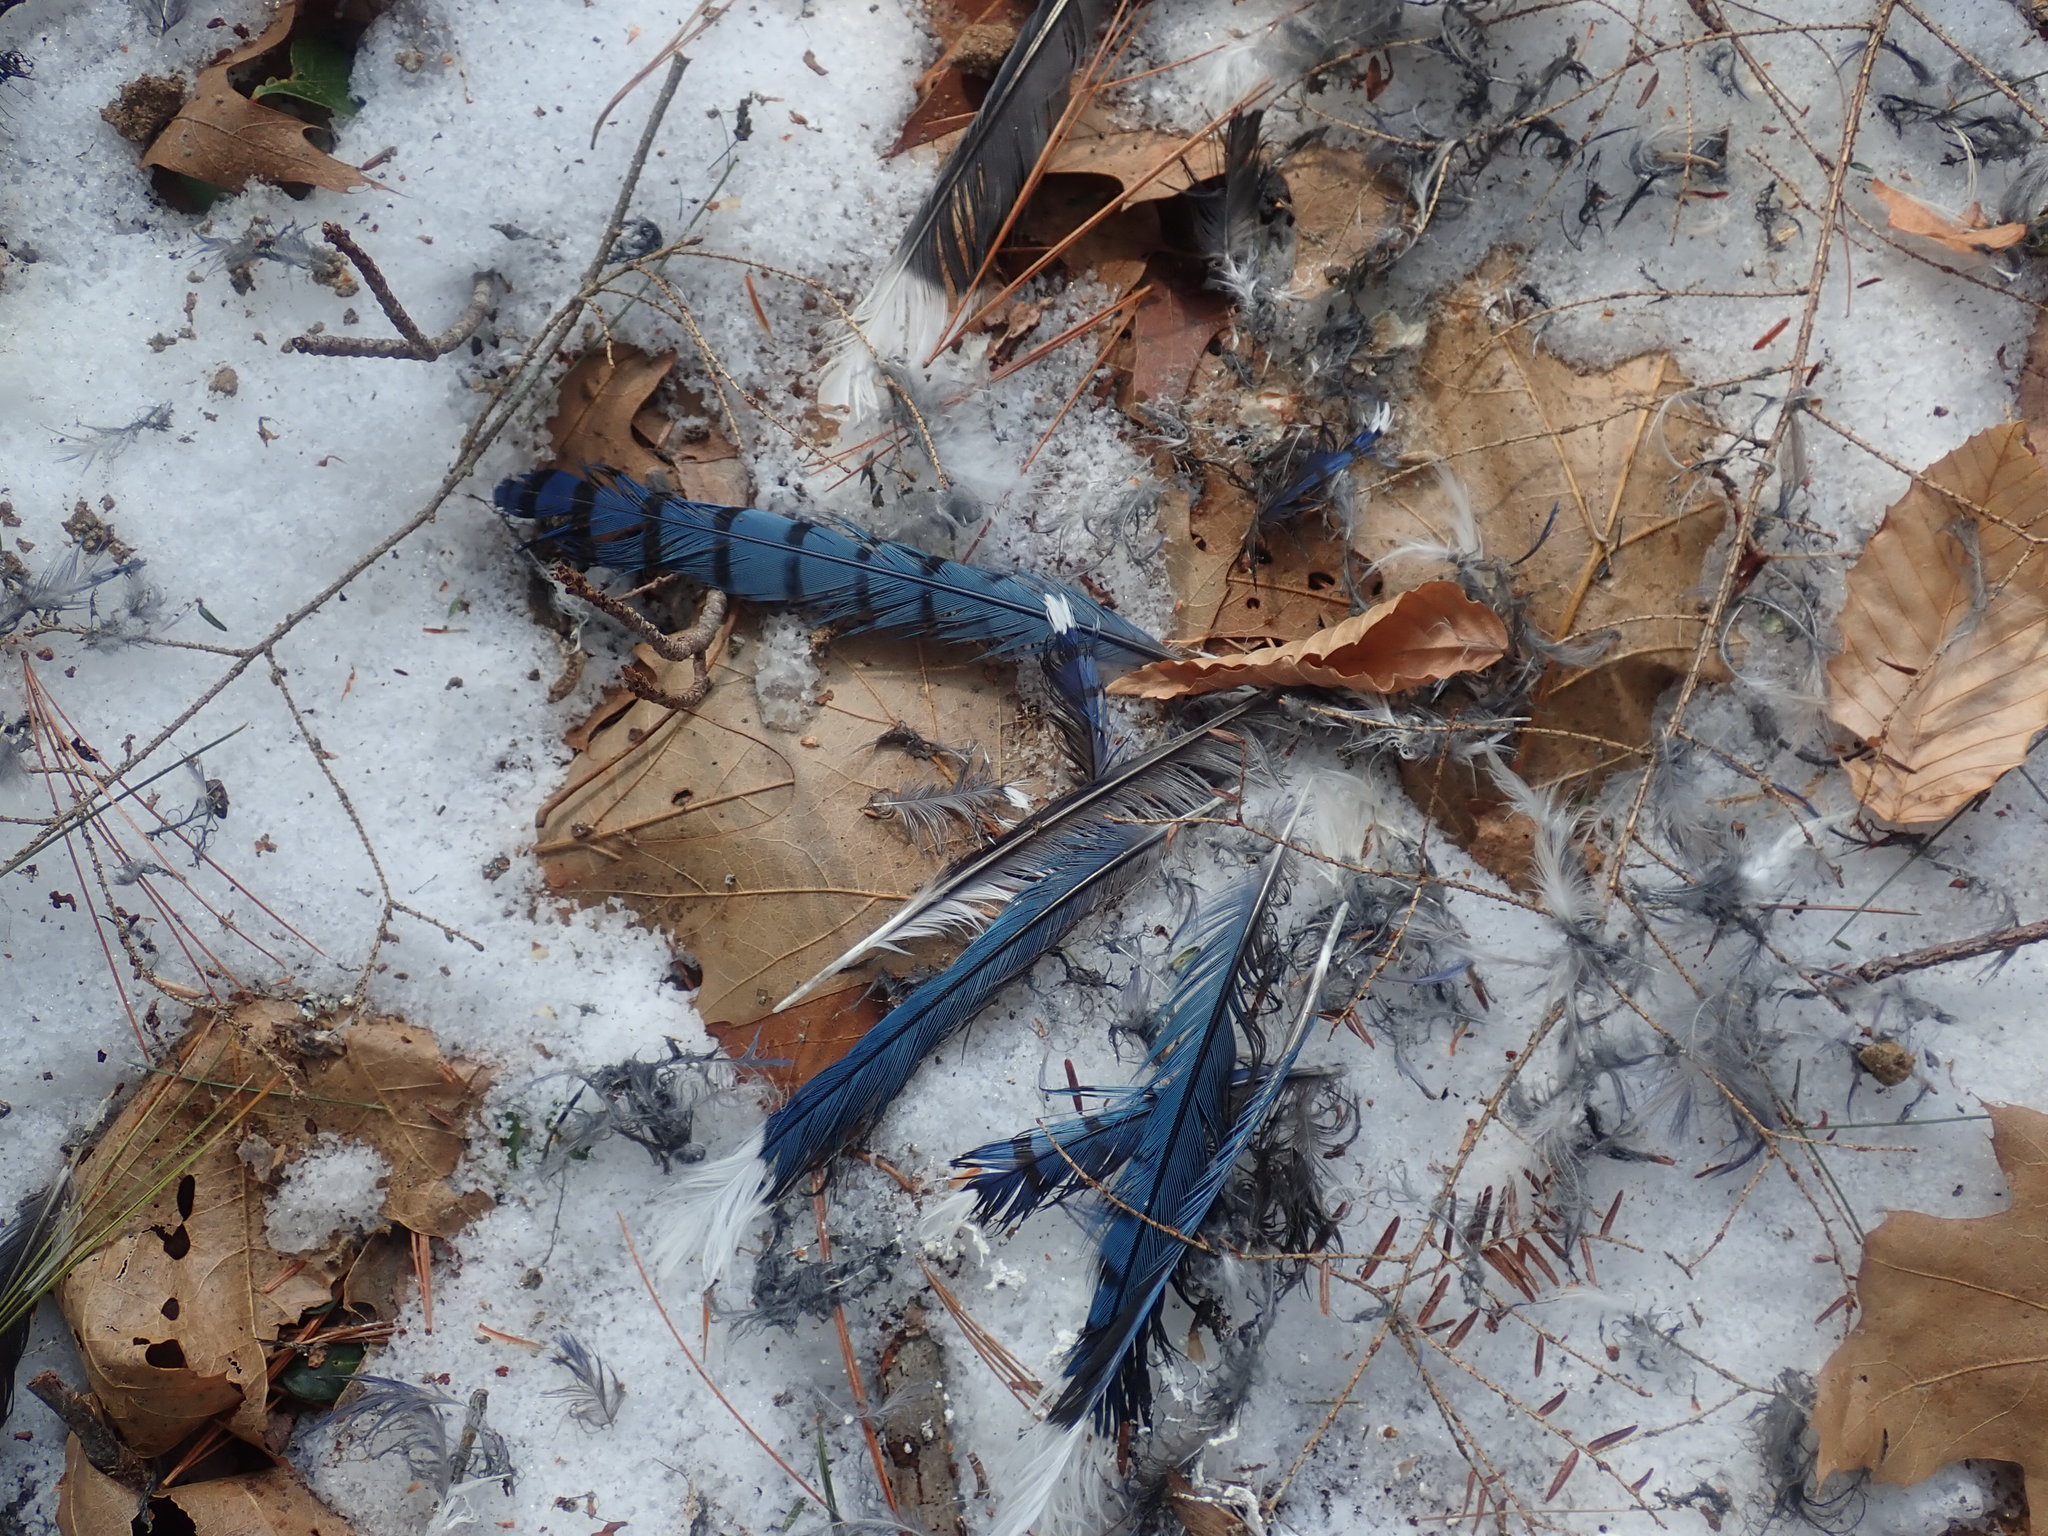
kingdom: Animalia
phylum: Chordata
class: Aves
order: Passeriformes
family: Corvidae
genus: Cyanocitta
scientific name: Cyanocitta cristata
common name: Blue jay
